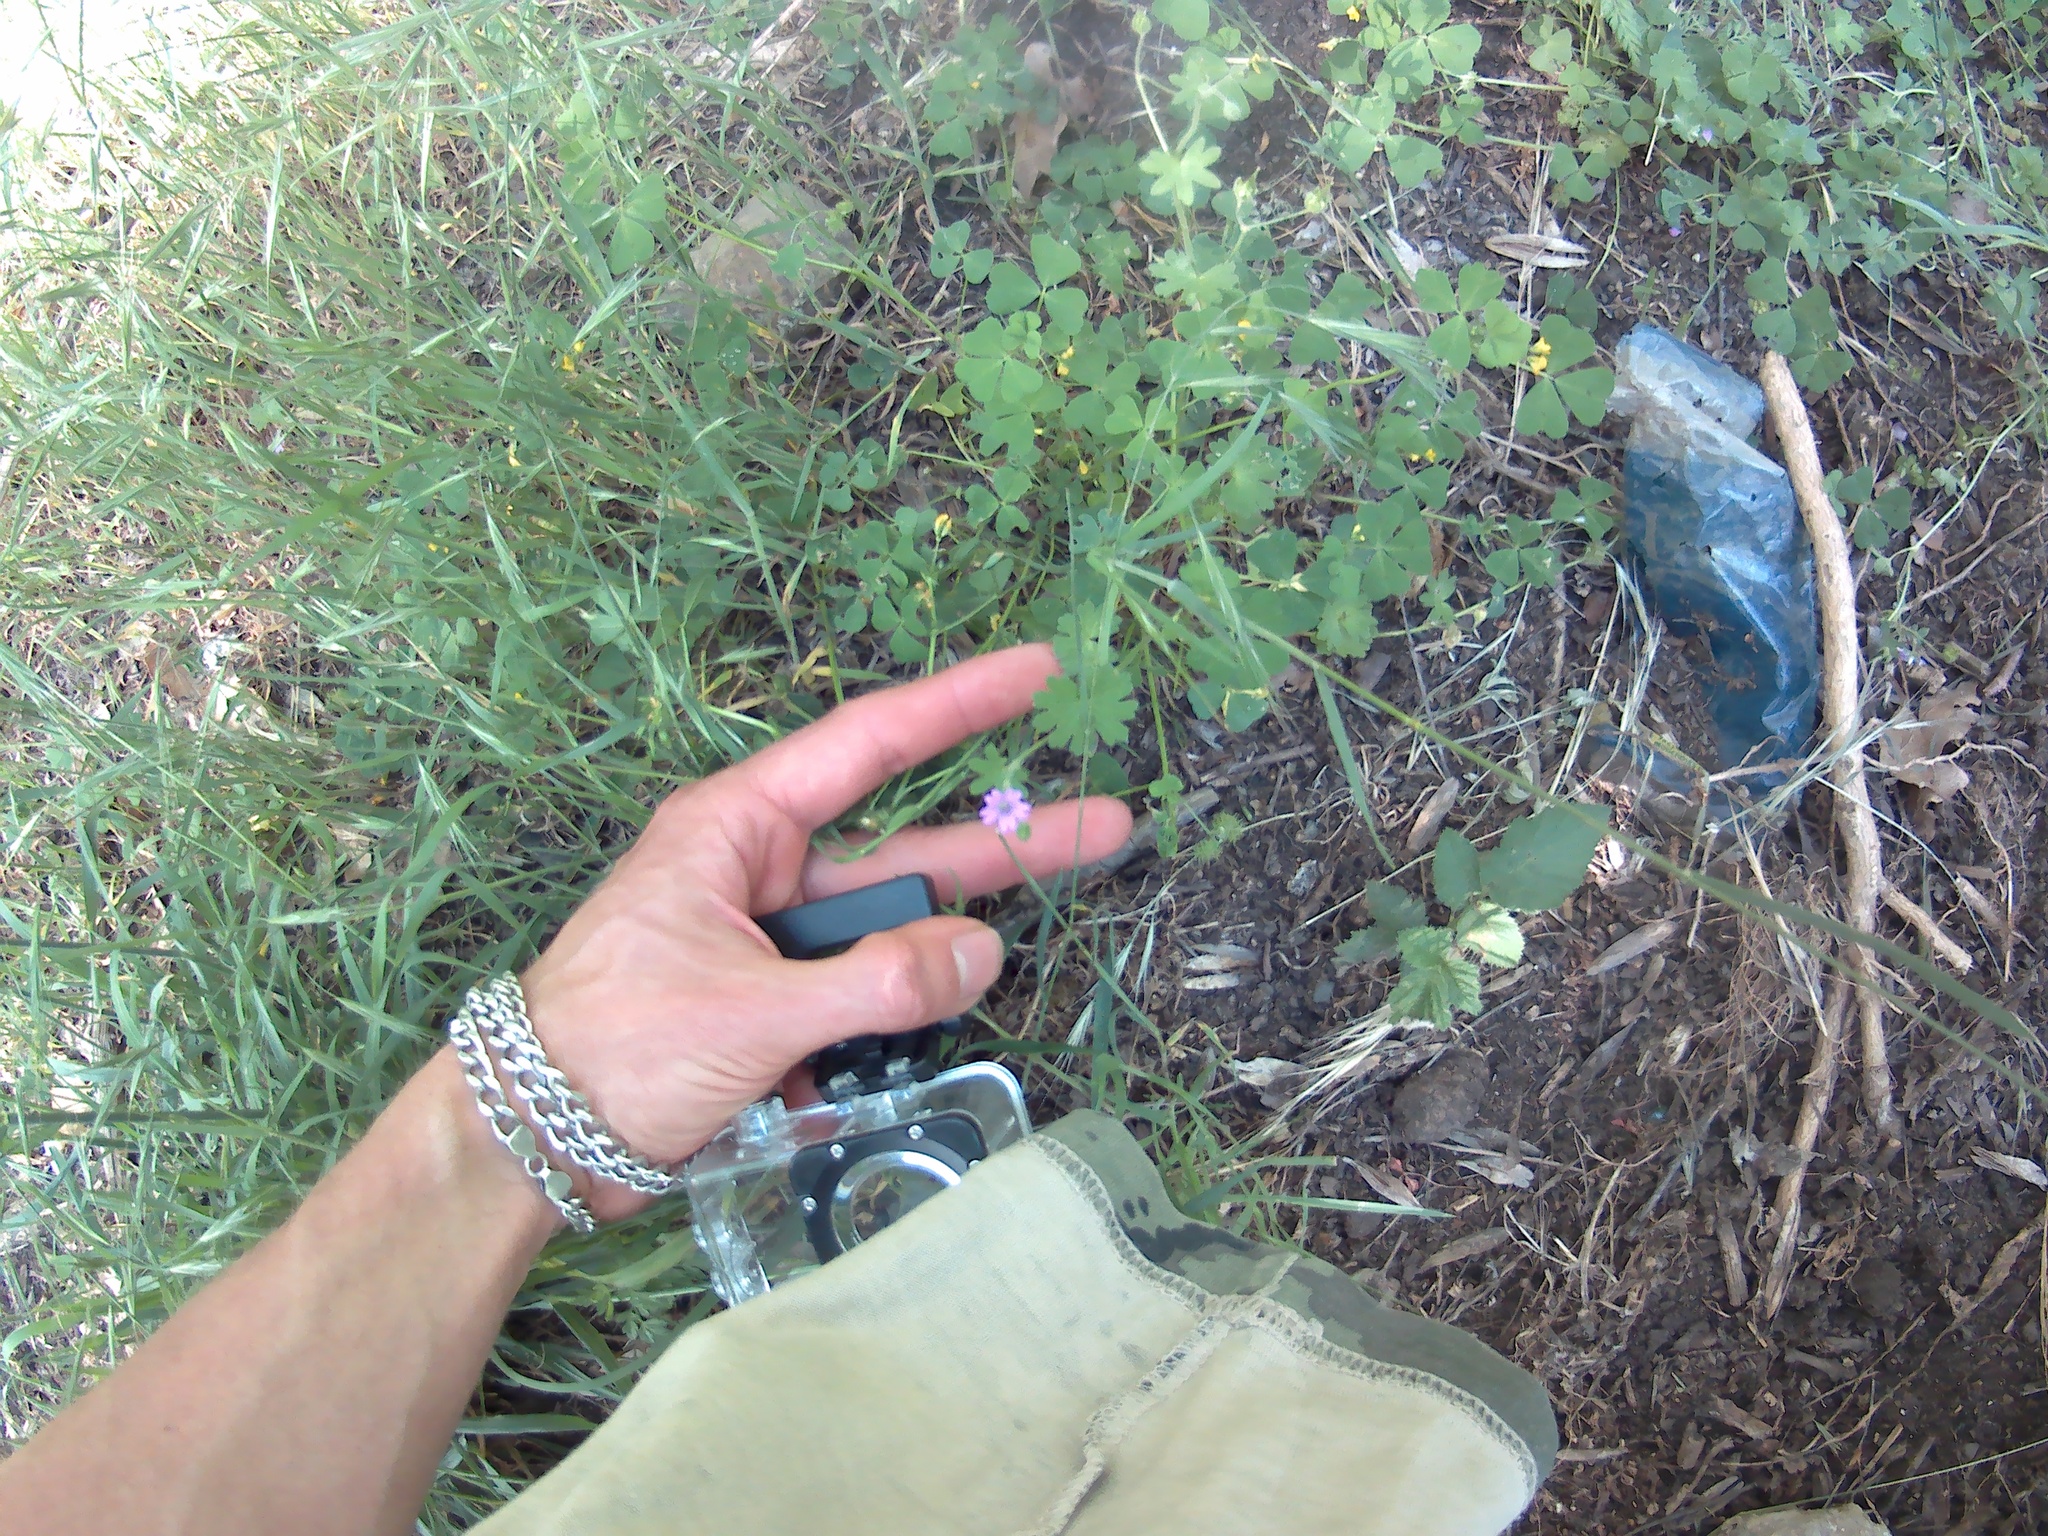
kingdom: Plantae
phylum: Tracheophyta
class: Magnoliopsida
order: Geraniales
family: Geraniaceae
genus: Geranium
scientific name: Geranium molle
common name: Dove's-foot crane's-bill
